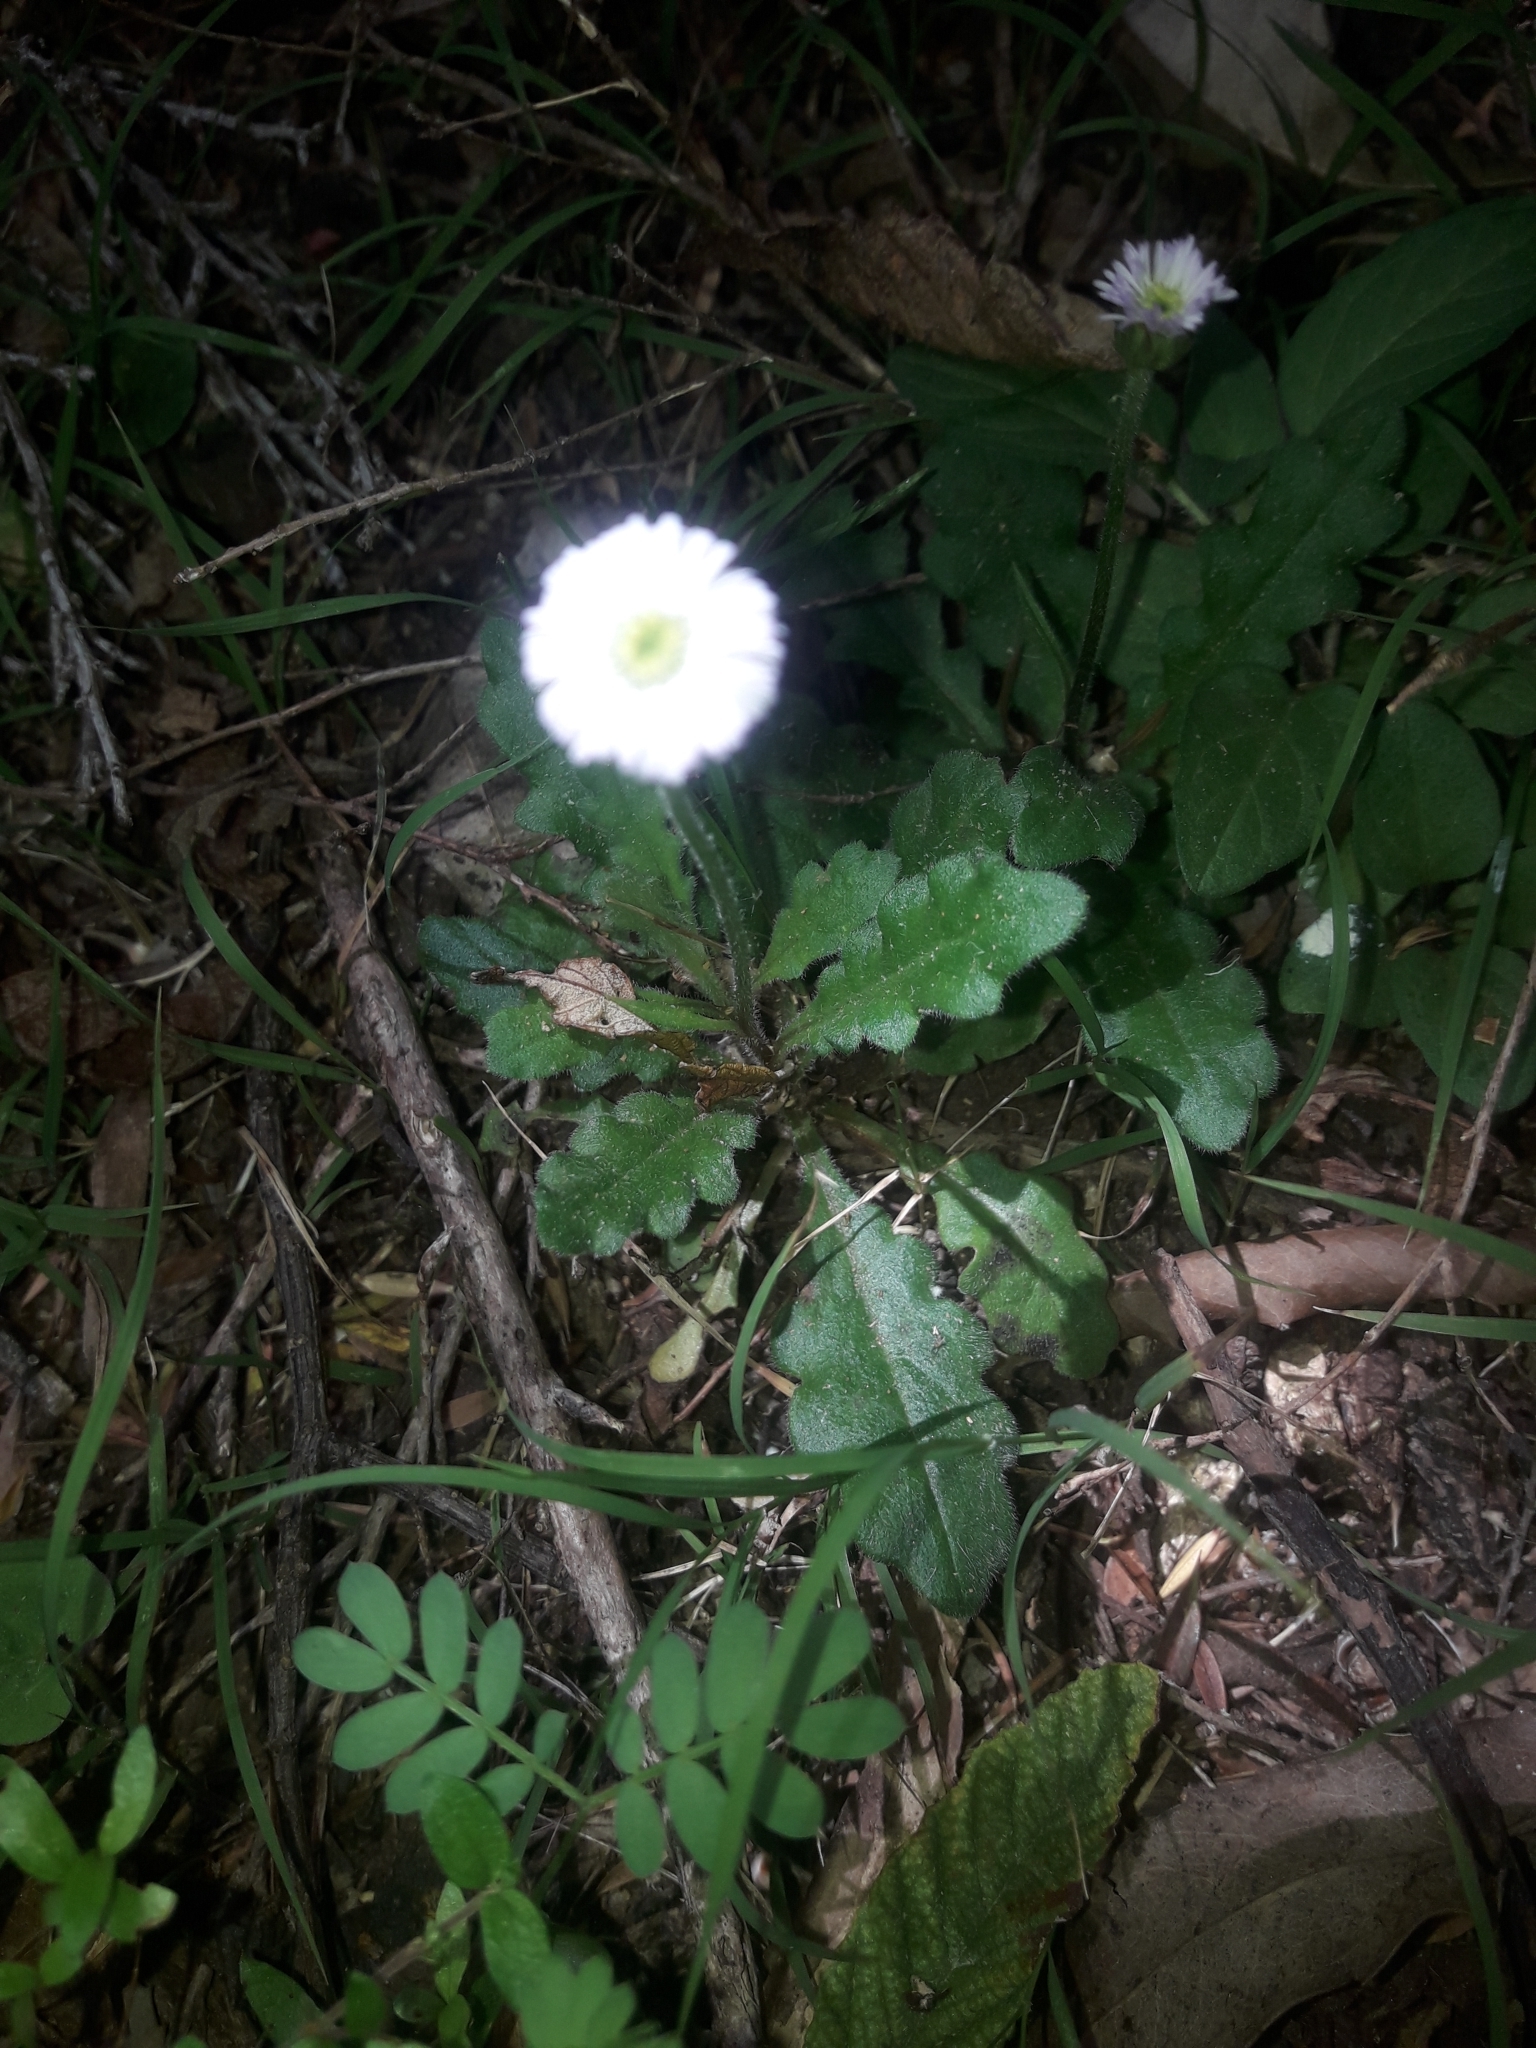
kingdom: Plantae
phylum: Tracheophyta
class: Magnoliopsida
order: Asterales
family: Asteraceae
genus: Lagenophora
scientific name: Lagenophora stipitata
